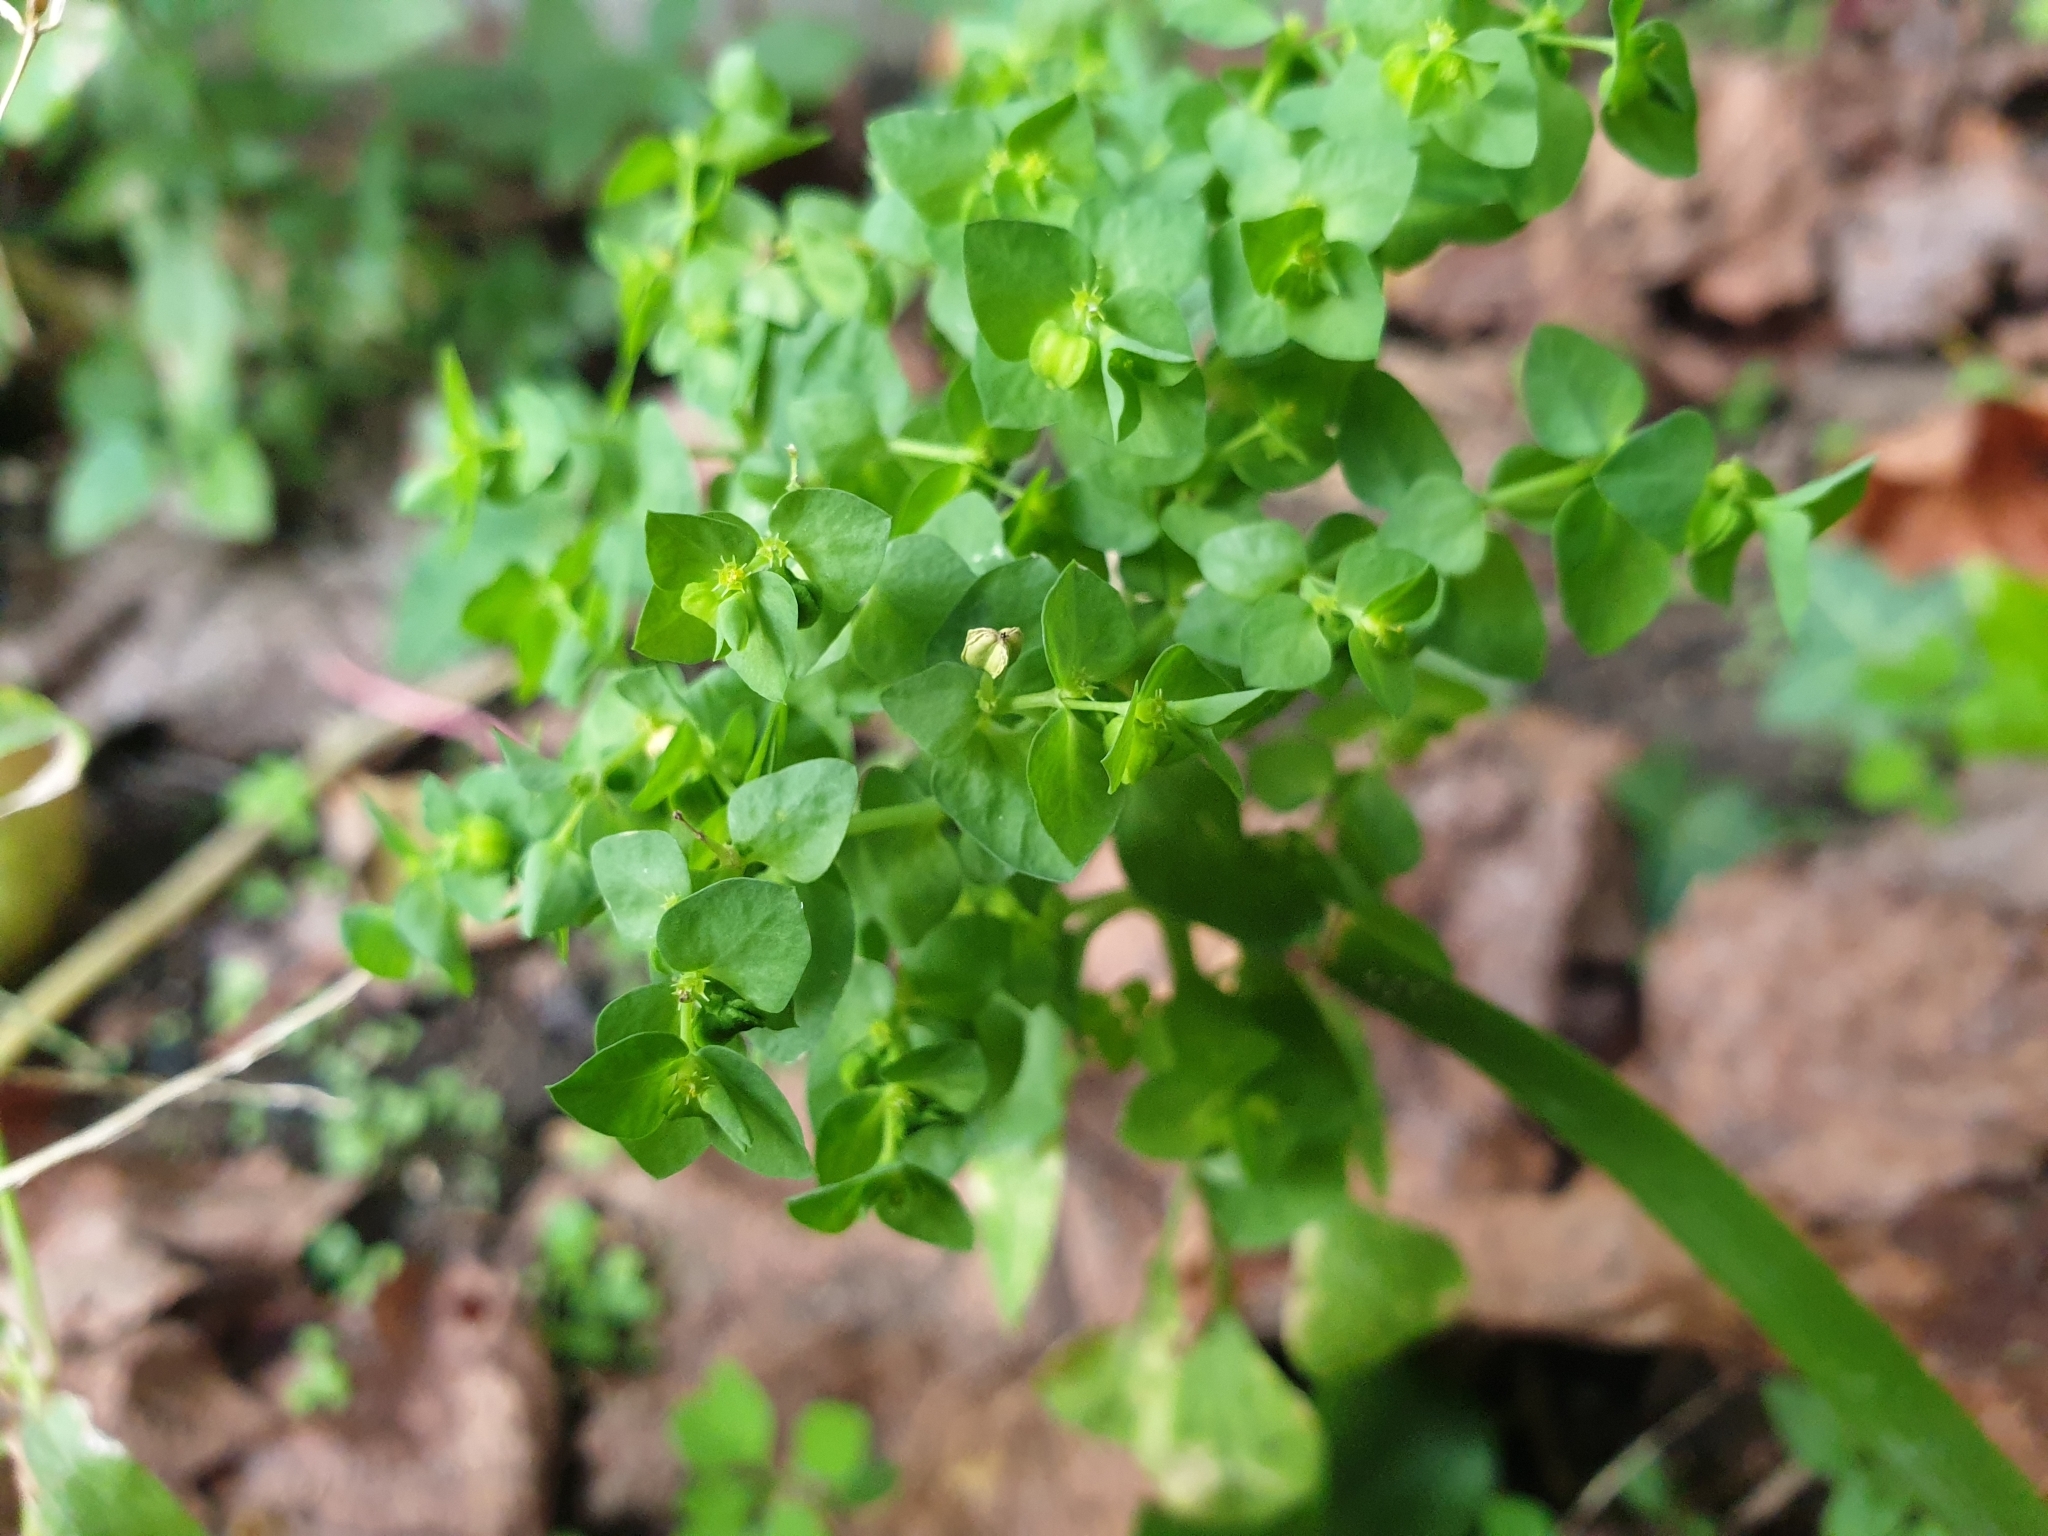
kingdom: Plantae
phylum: Tracheophyta
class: Magnoliopsida
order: Malpighiales
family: Euphorbiaceae
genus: Euphorbia
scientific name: Euphorbia peplus
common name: Petty spurge
